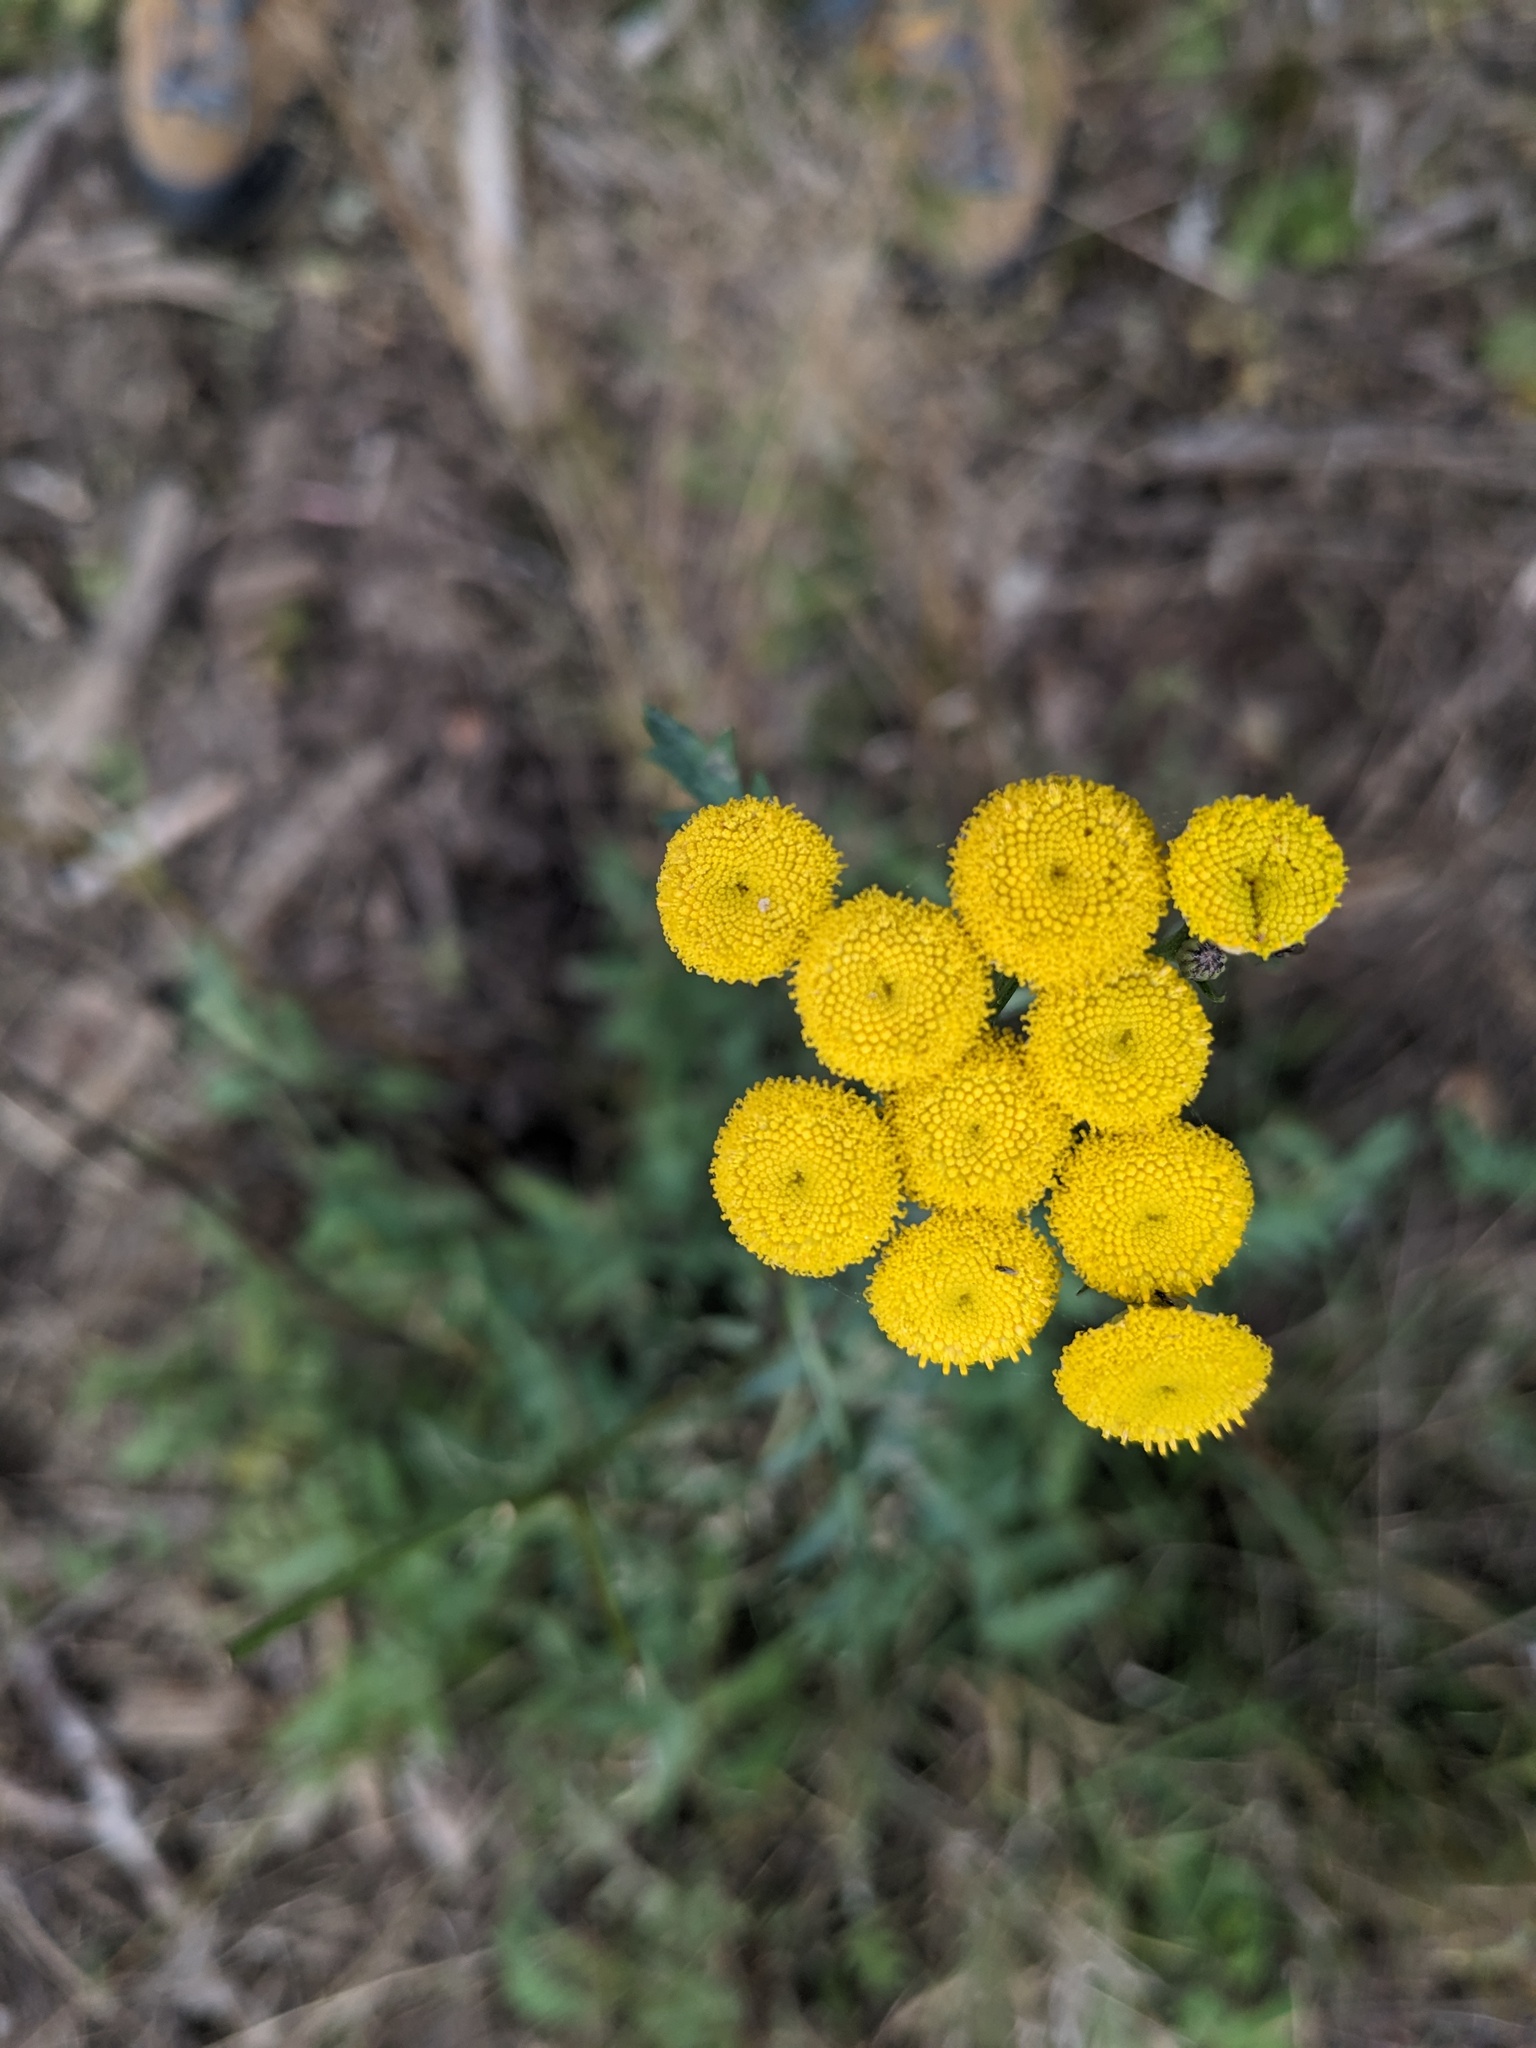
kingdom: Plantae
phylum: Tracheophyta
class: Magnoliopsida
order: Asterales
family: Asteraceae
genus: Tanacetum
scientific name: Tanacetum vulgare
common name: Common tansy
